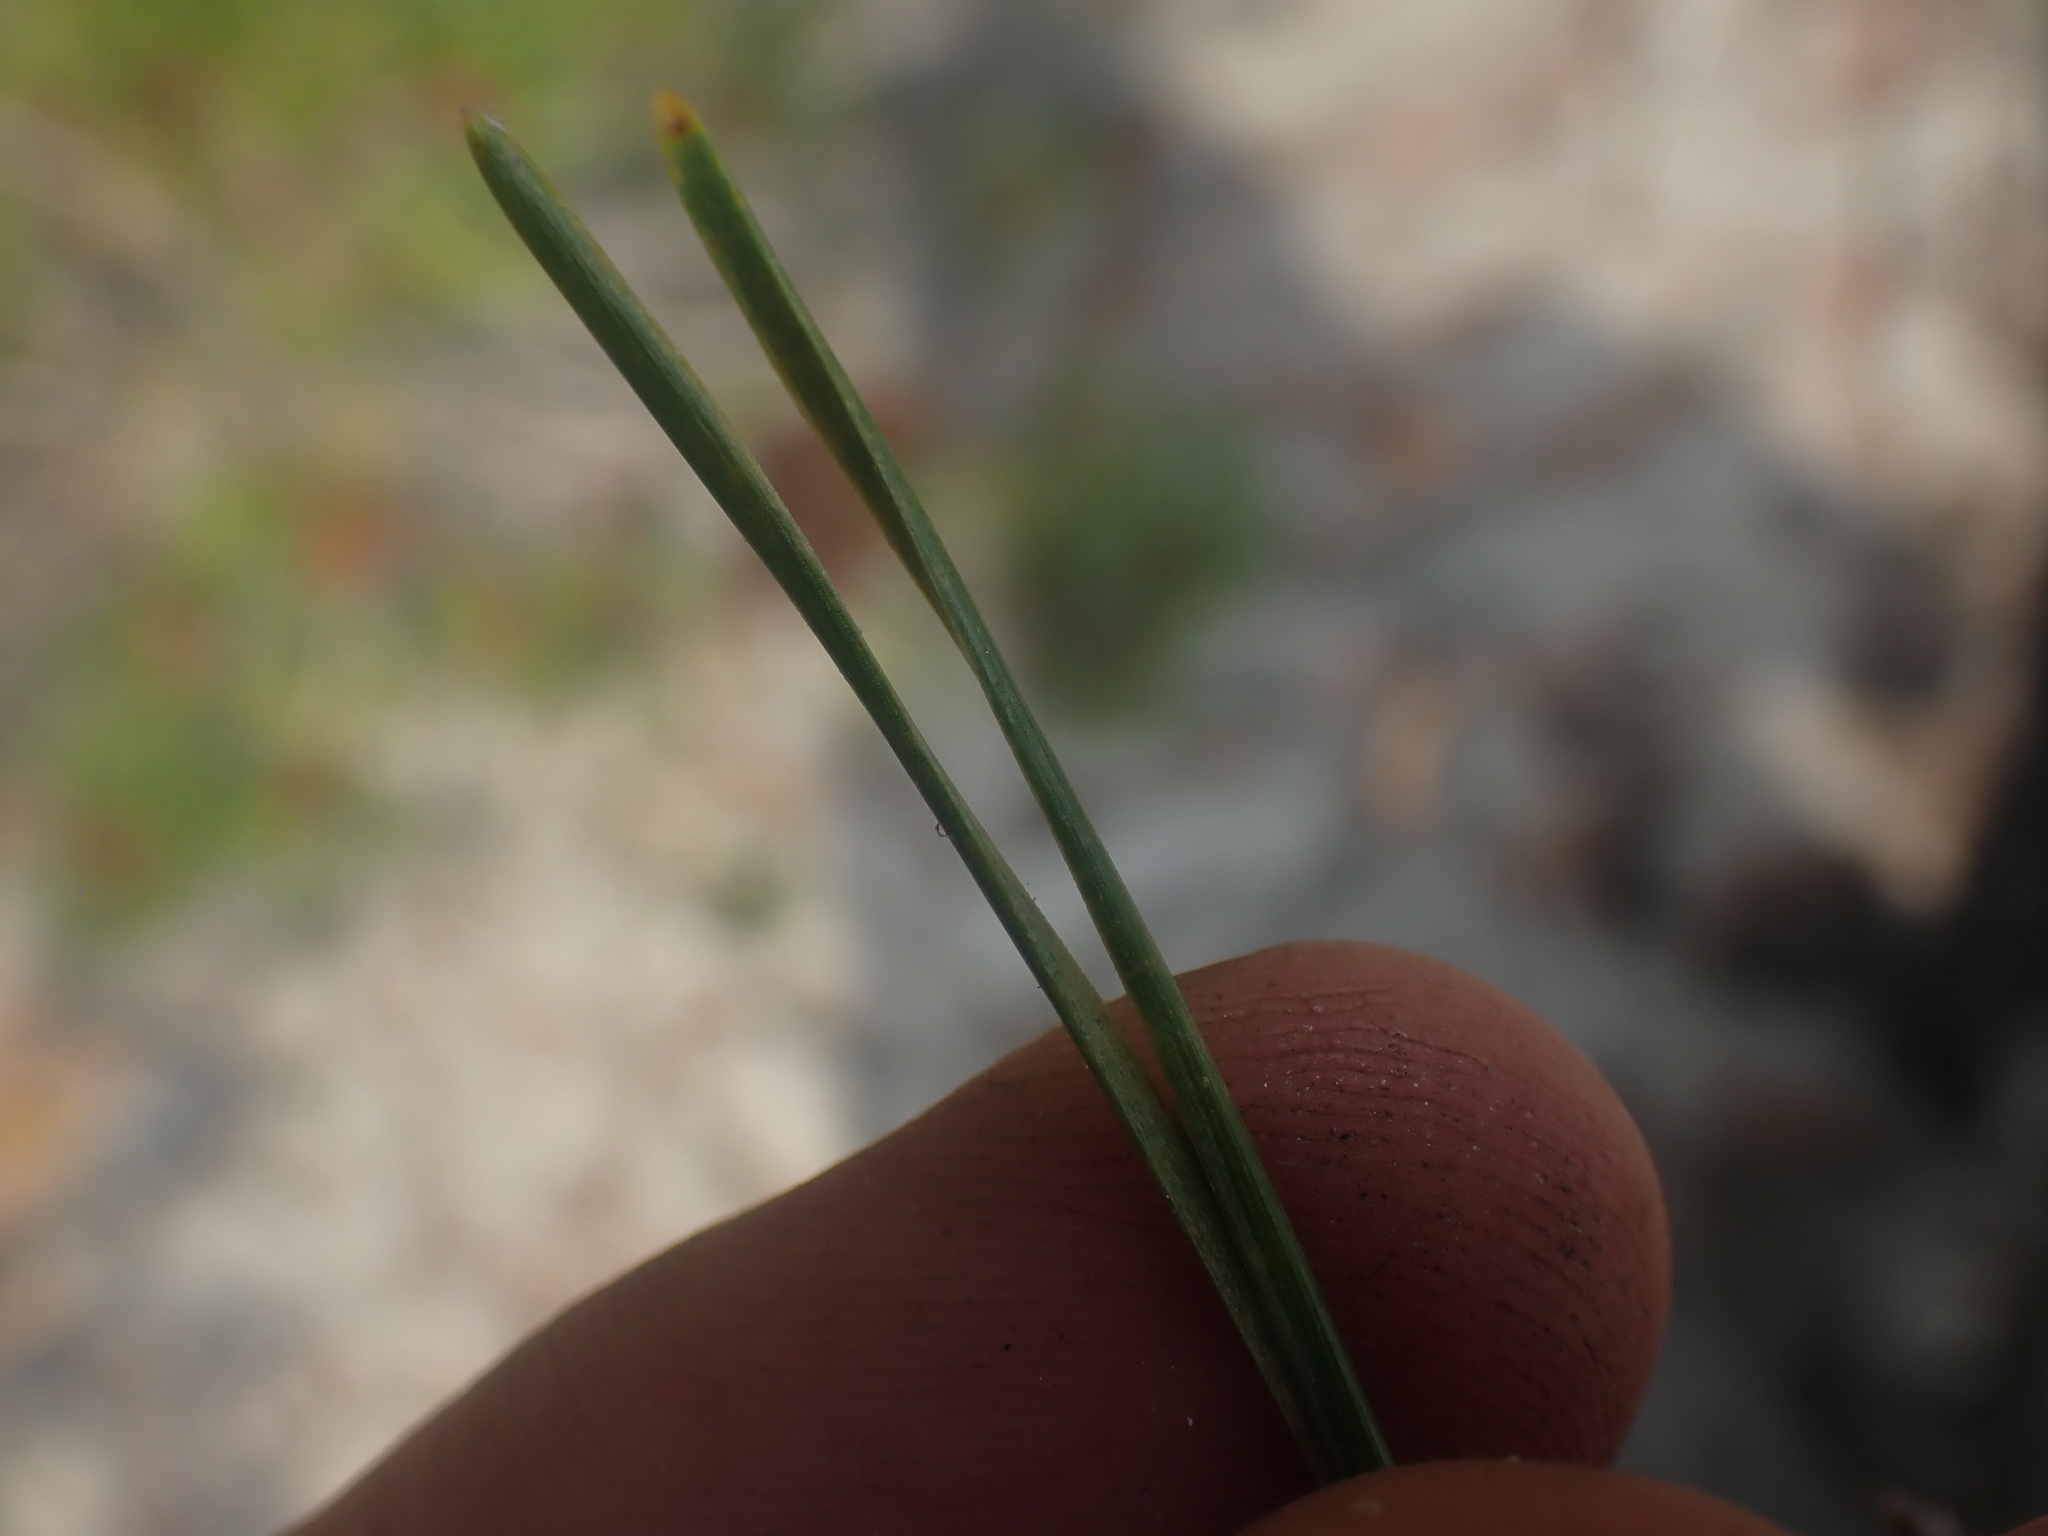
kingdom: Plantae
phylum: Tracheophyta
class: Pinopsida
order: Pinales
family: Pinaceae
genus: Pinus
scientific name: Pinus contorta
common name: Lodgepole pine
